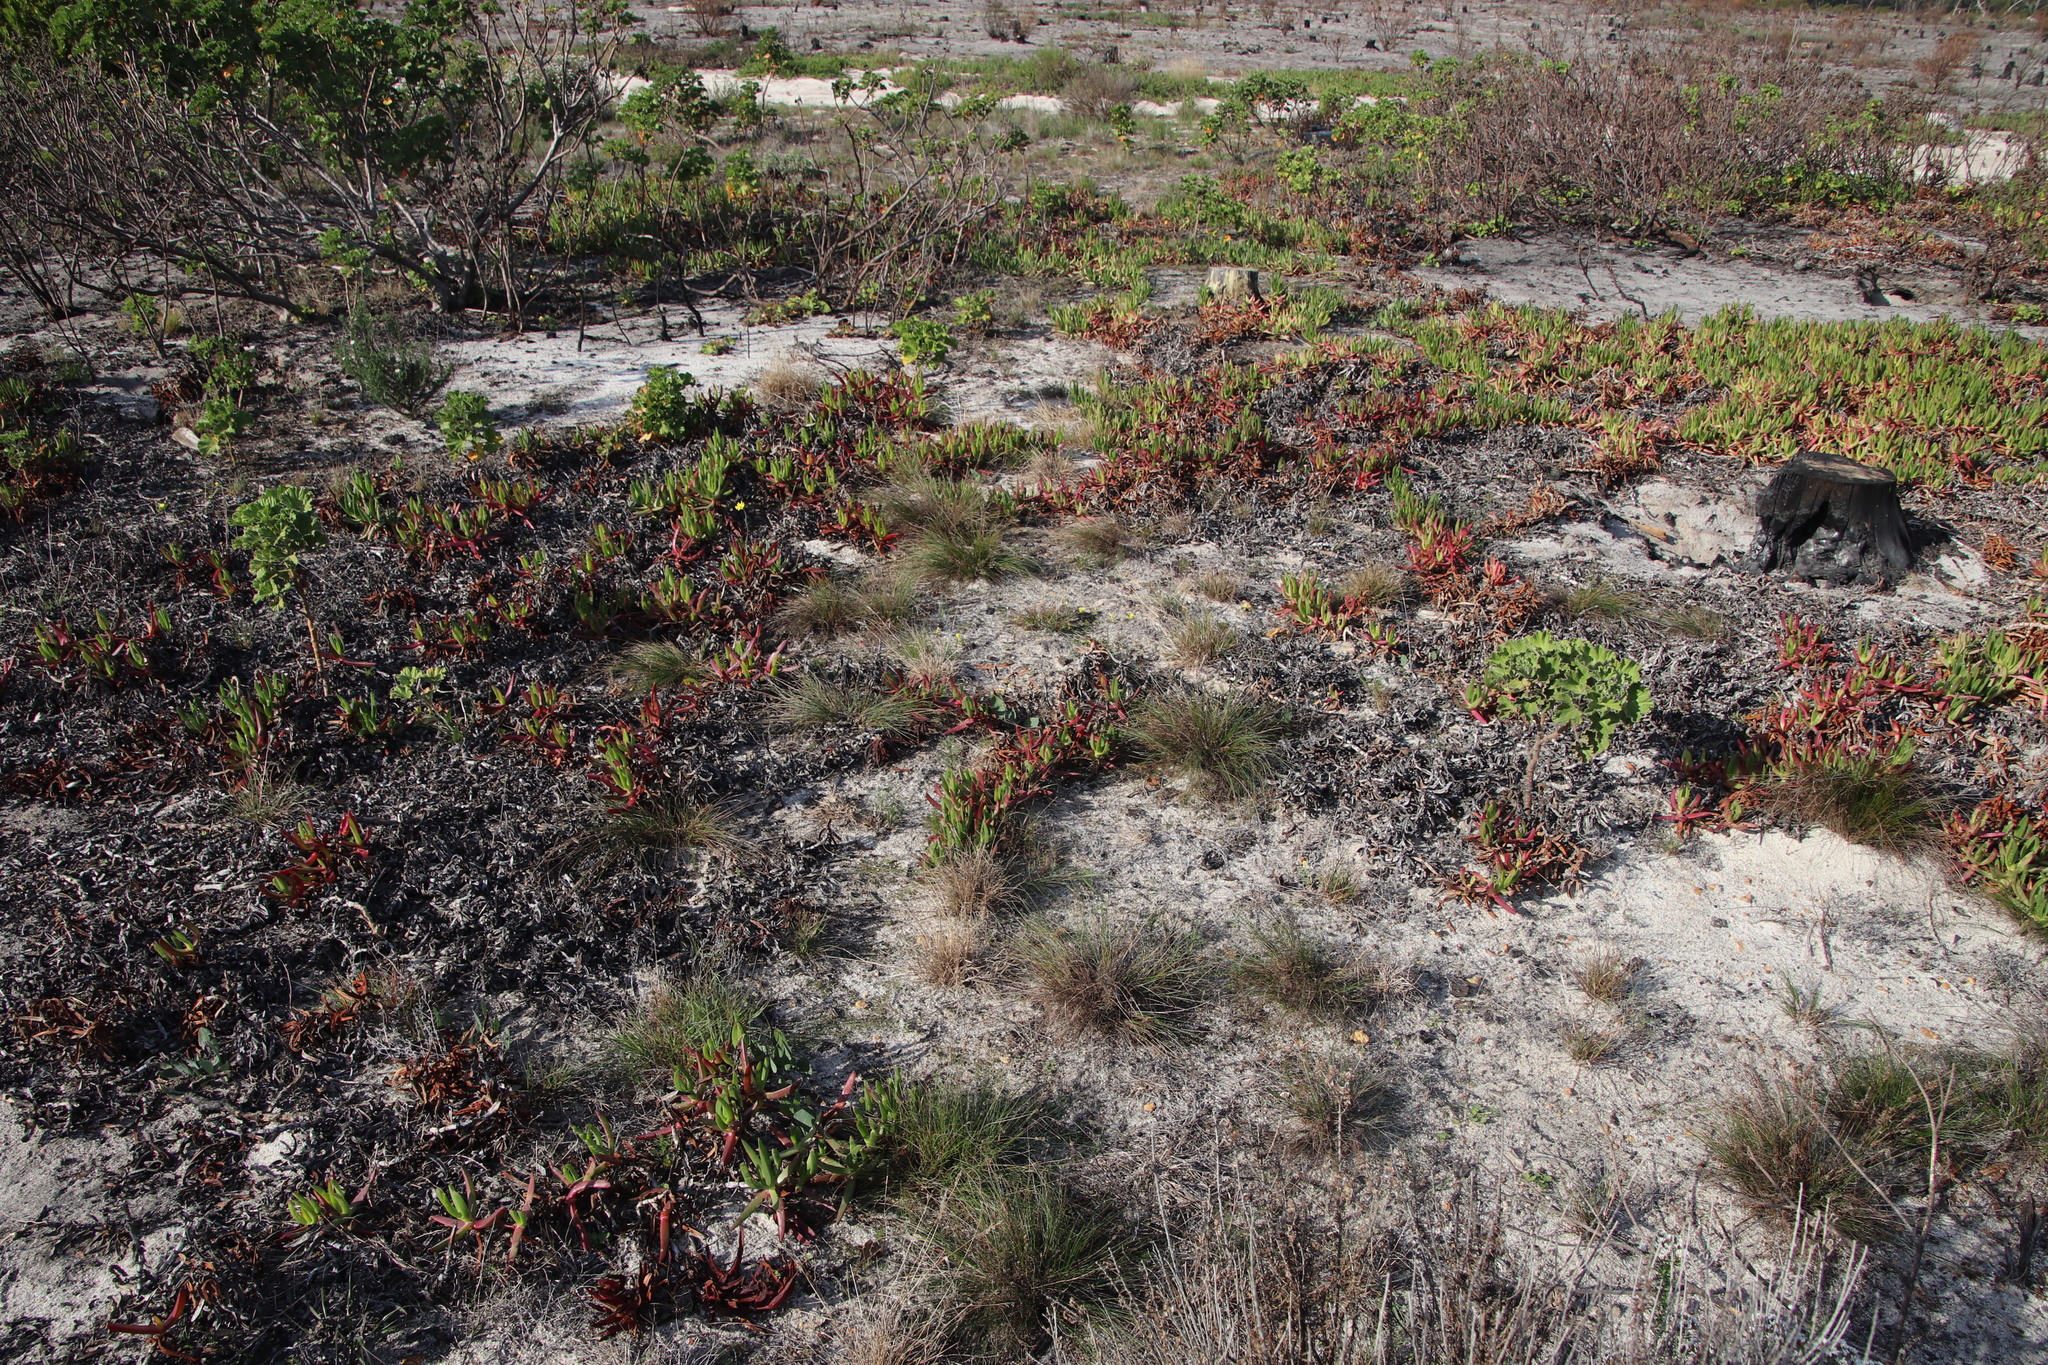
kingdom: Plantae
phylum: Tracheophyta
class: Liliopsida
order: Poales
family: Cyperaceae
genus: Ficinia
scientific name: Ficinia bulbosa
